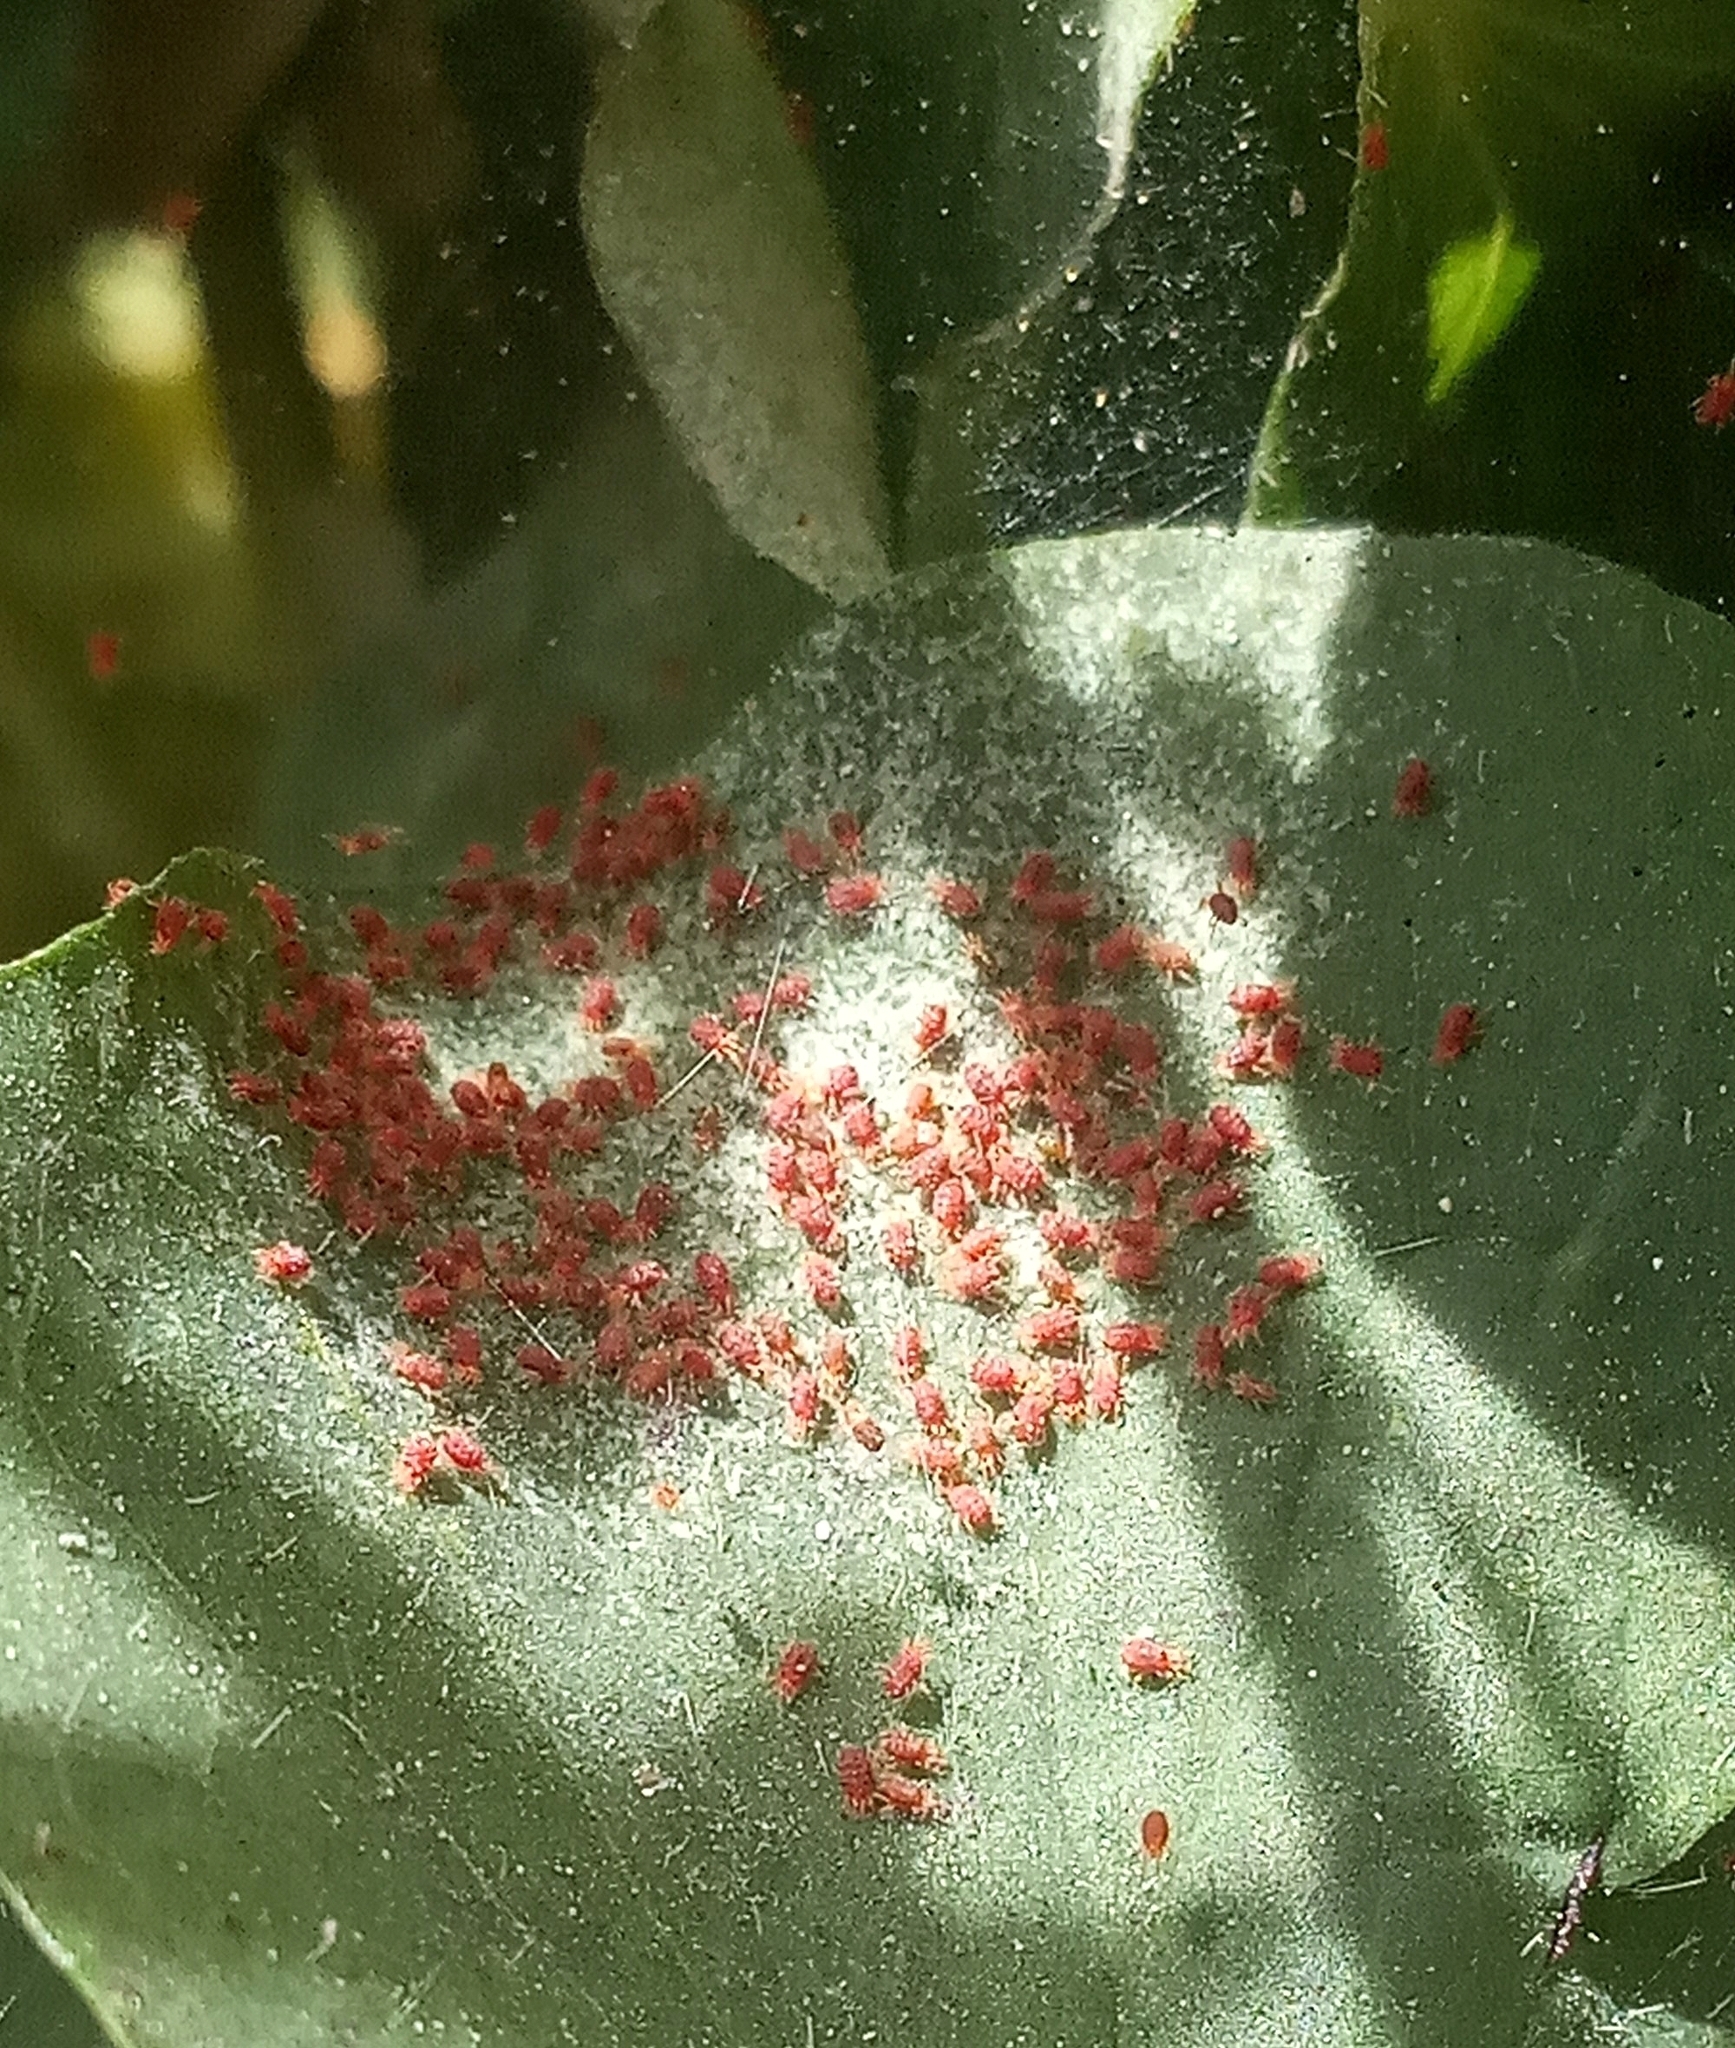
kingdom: Animalia
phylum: Arthropoda
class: Arachnida
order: Trombidiformes
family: Tetranychidae
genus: Tetranychus
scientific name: Tetranychus urticae
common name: Carmine spider mite
